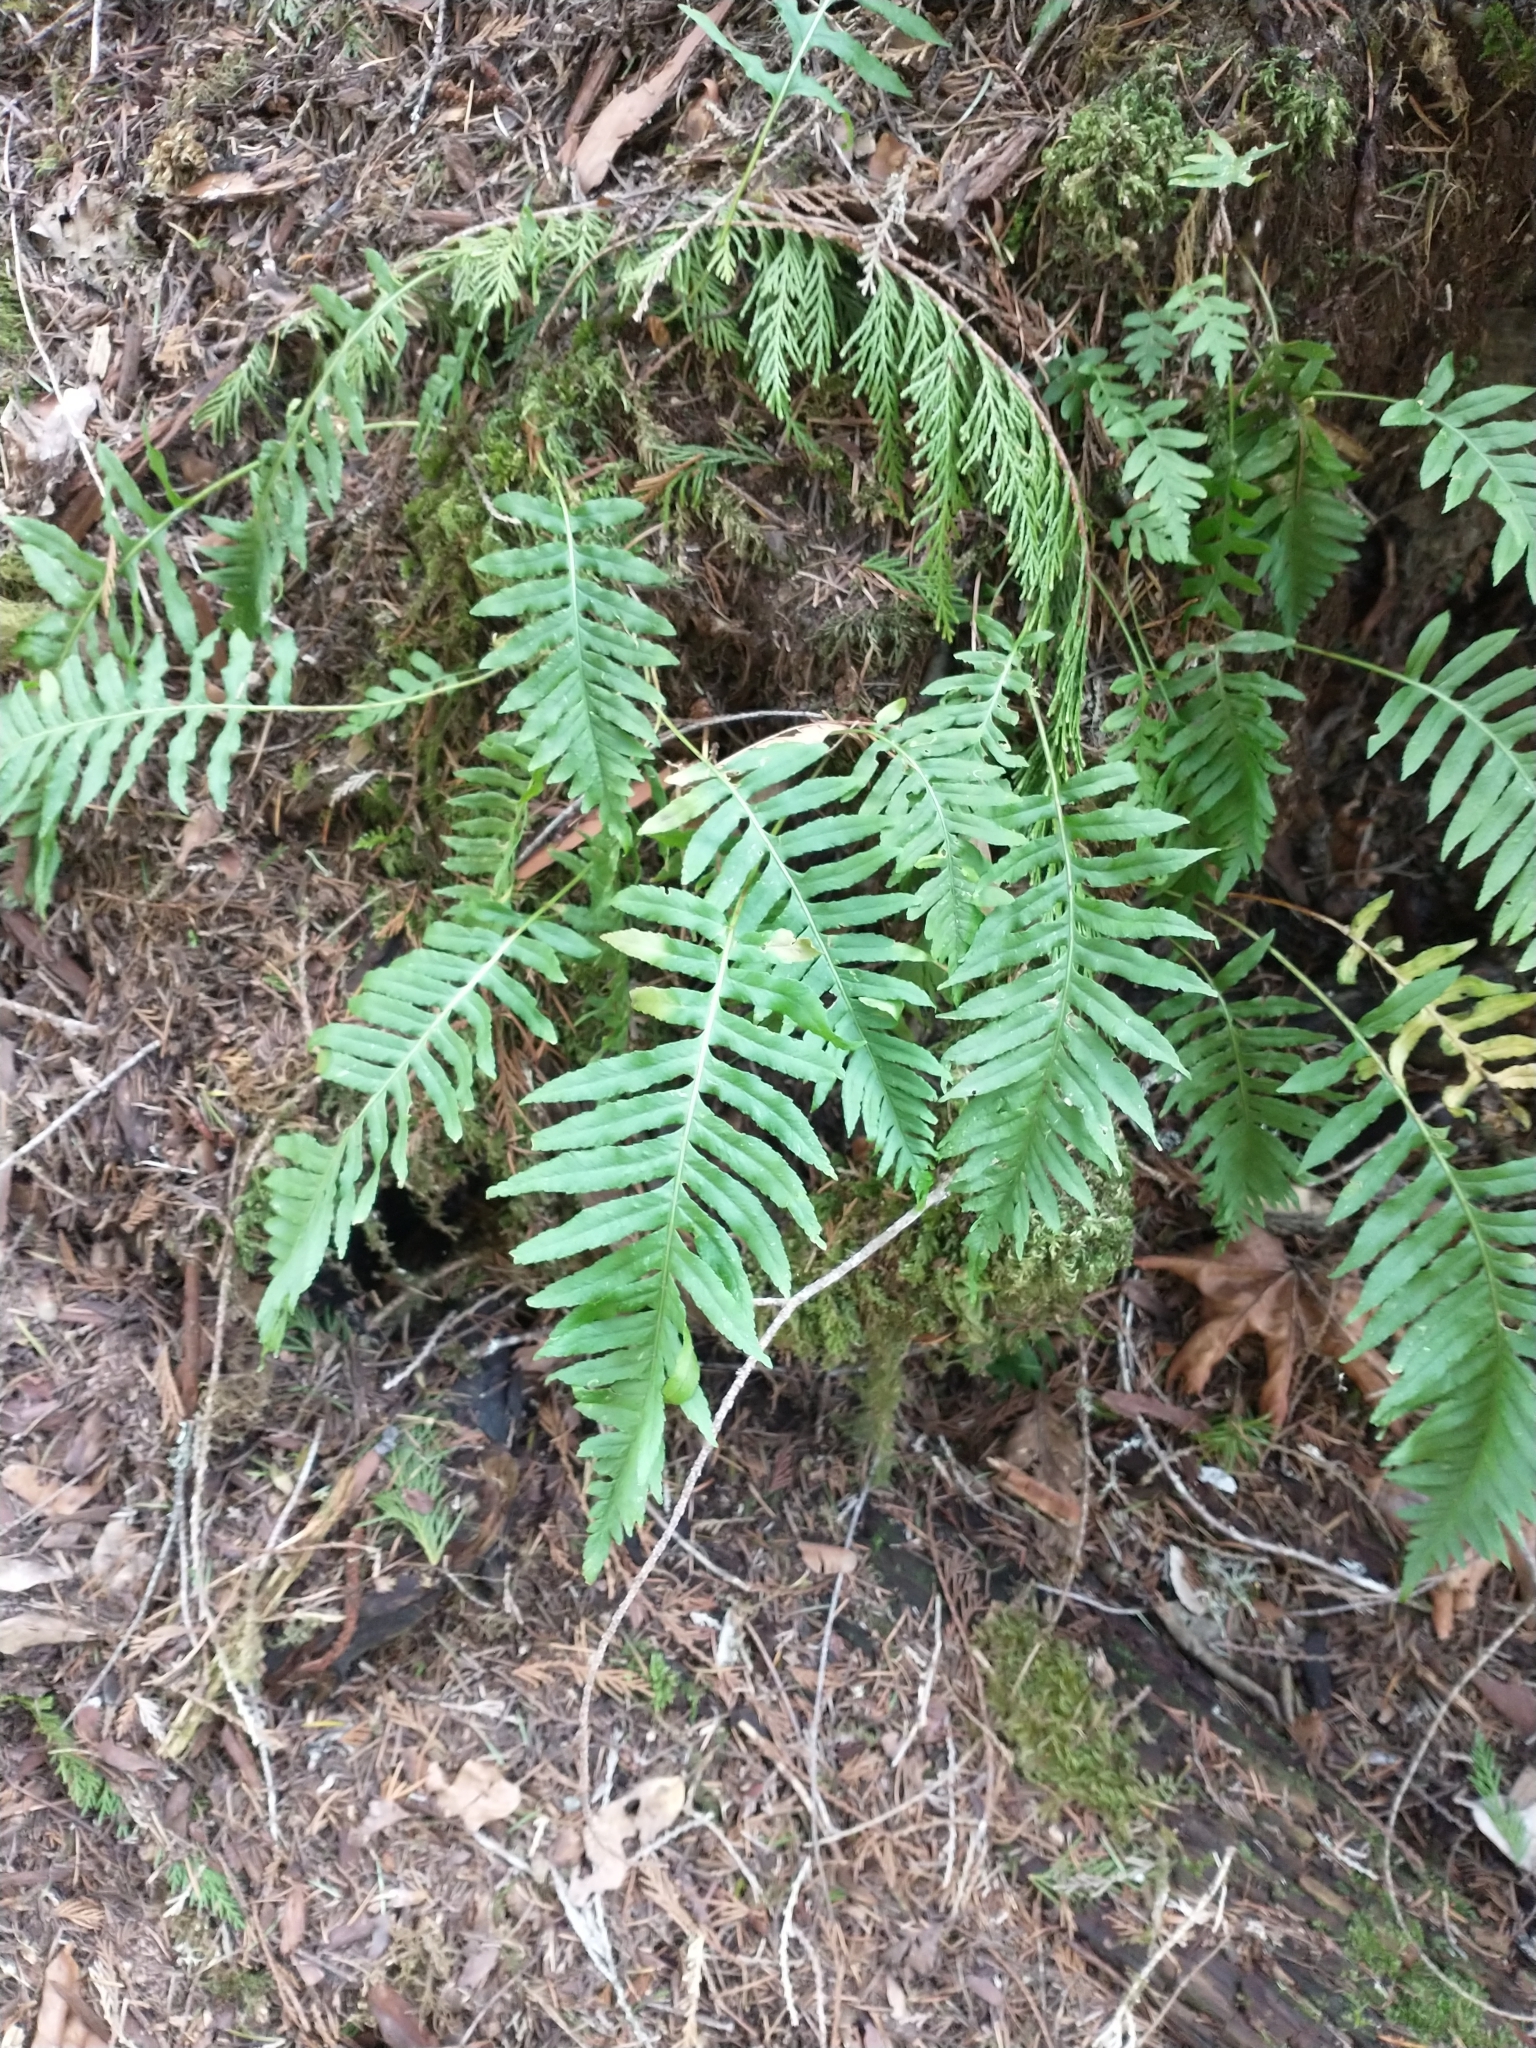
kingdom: Plantae
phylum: Tracheophyta
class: Polypodiopsida
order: Polypodiales
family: Polypodiaceae
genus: Polypodium
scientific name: Polypodium glycyrrhiza
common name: Licorice fern
